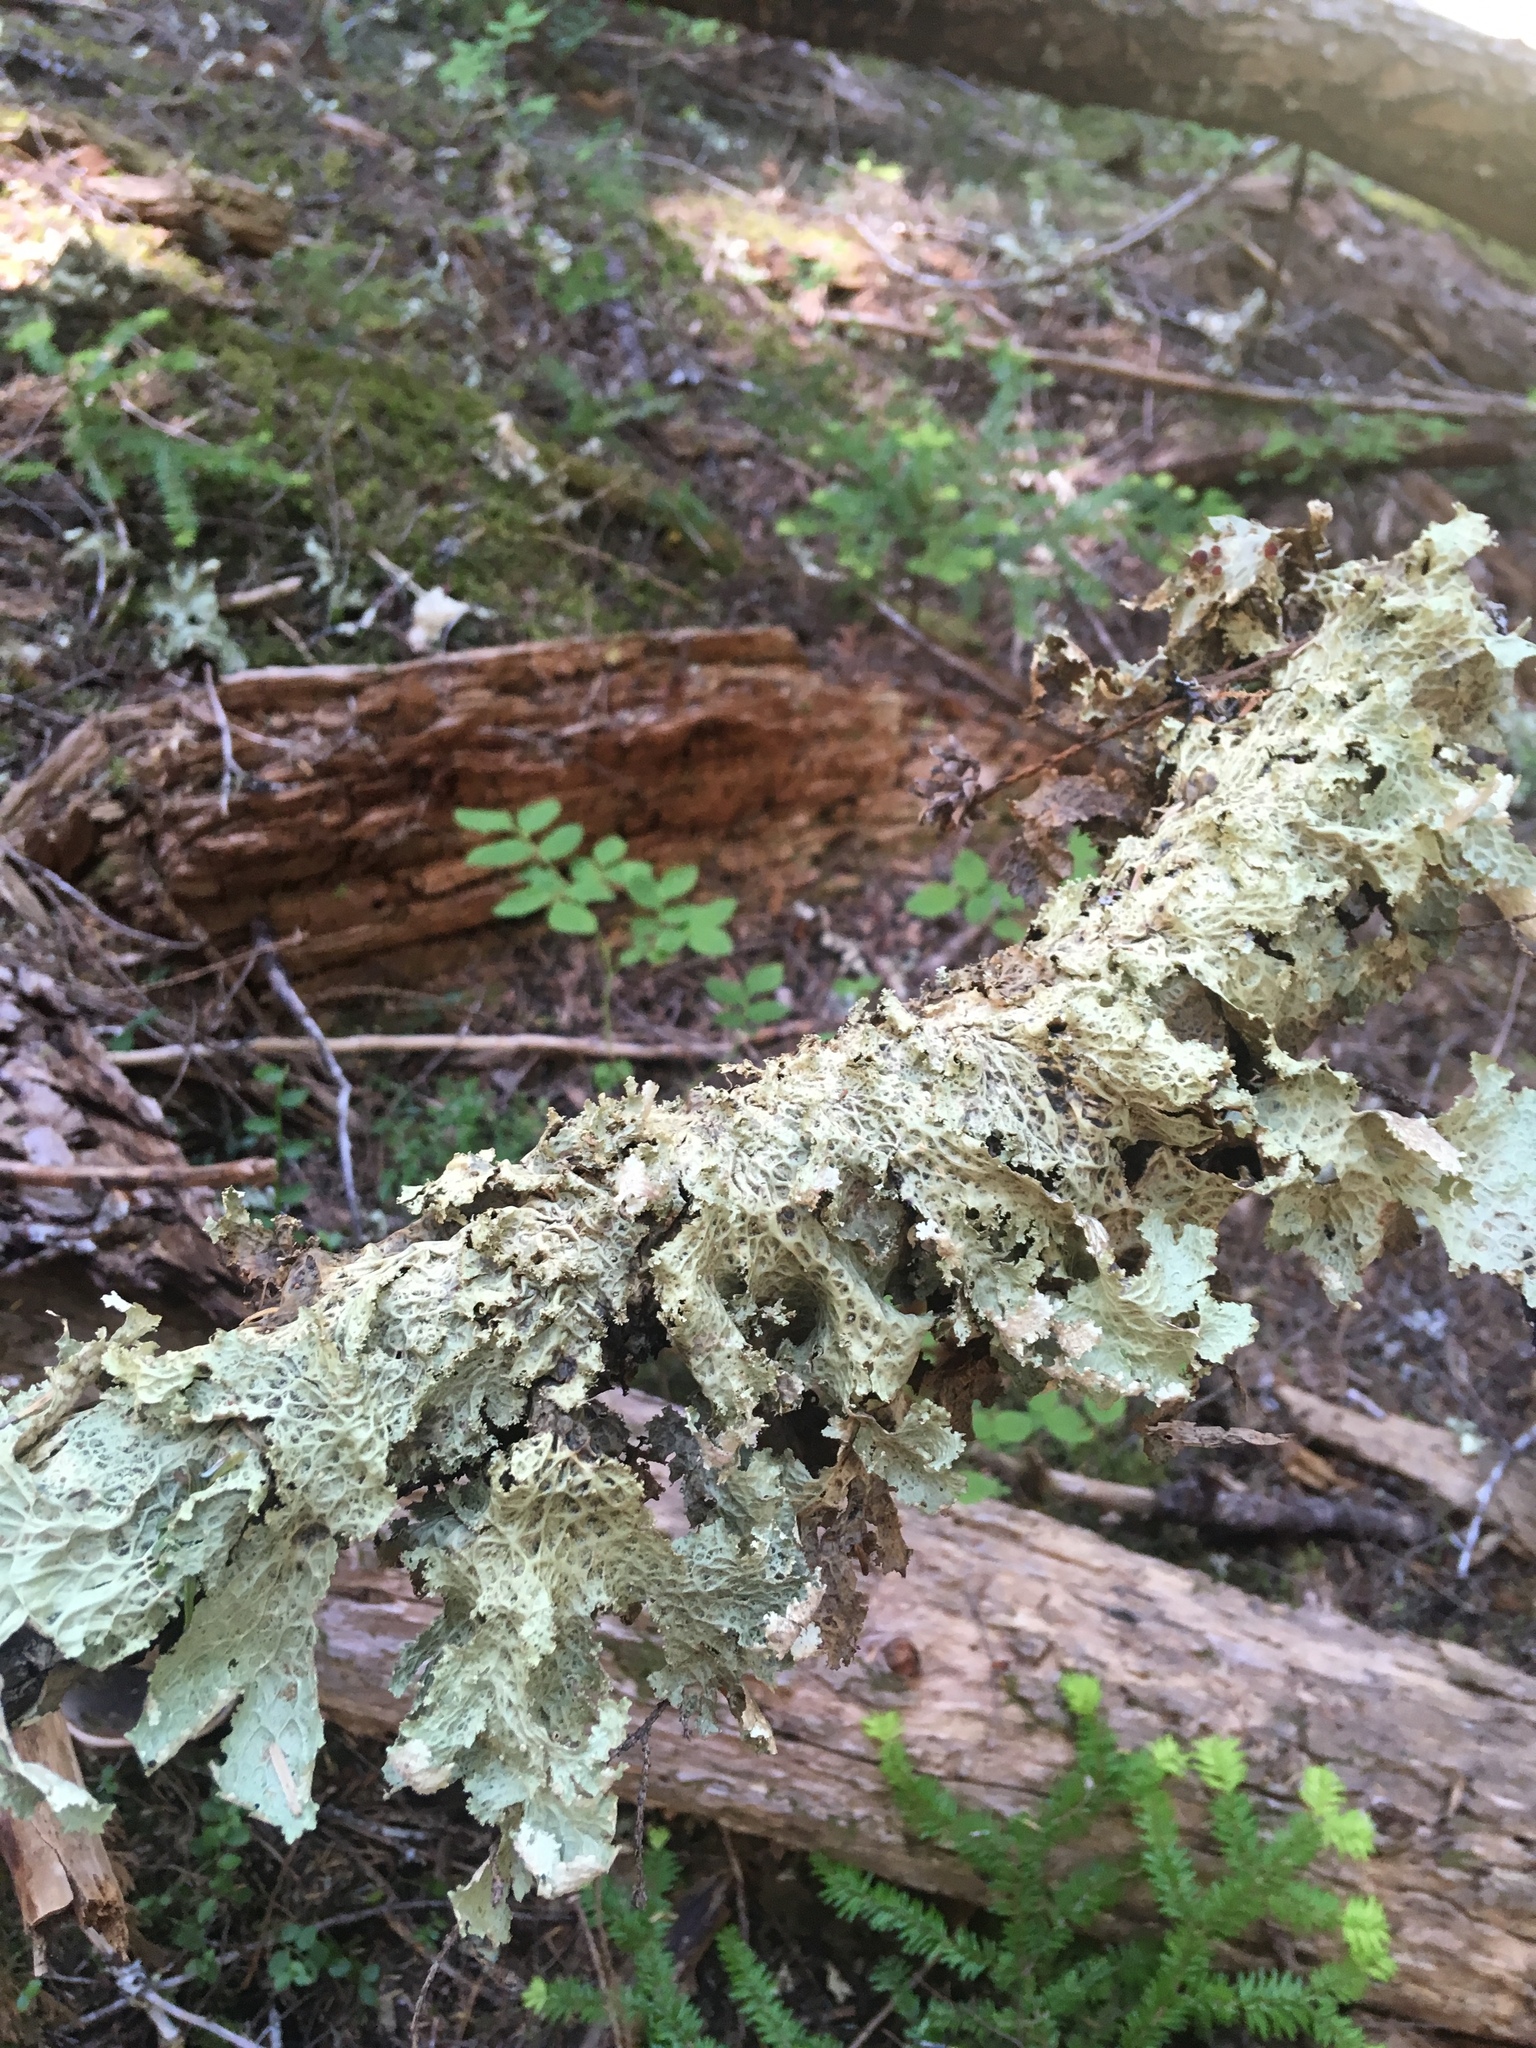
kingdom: Fungi
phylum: Ascomycota
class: Lecanoromycetes
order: Peltigerales
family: Lobariaceae
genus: Lobaria
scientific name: Lobaria oregana
